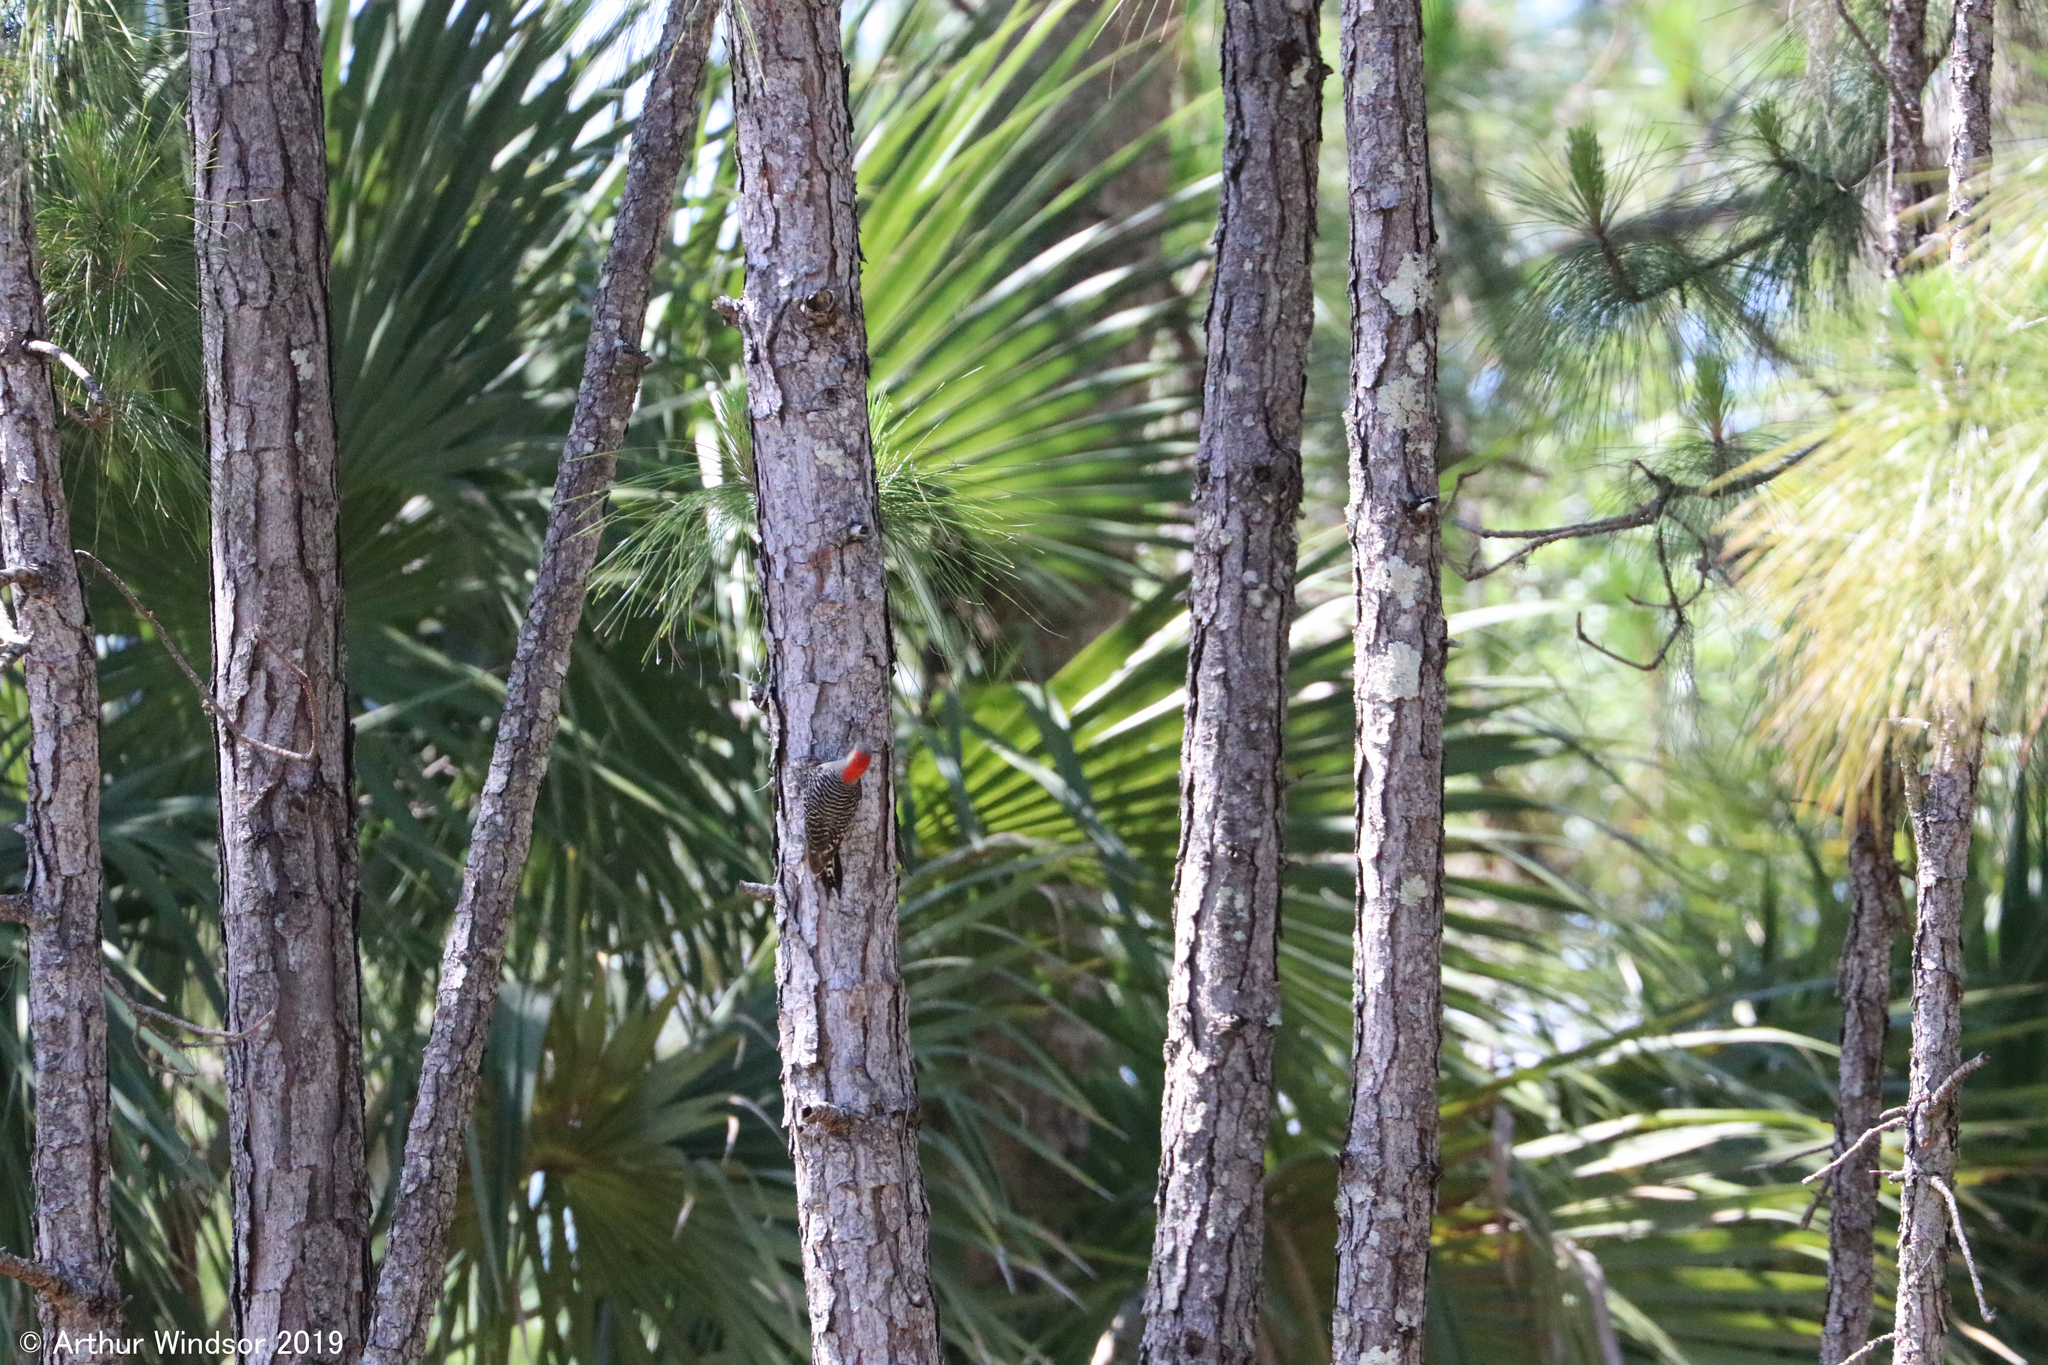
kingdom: Animalia
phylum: Chordata
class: Aves
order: Piciformes
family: Picidae
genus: Melanerpes
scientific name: Melanerpes carolinus
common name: Red-bellied woodpecker
